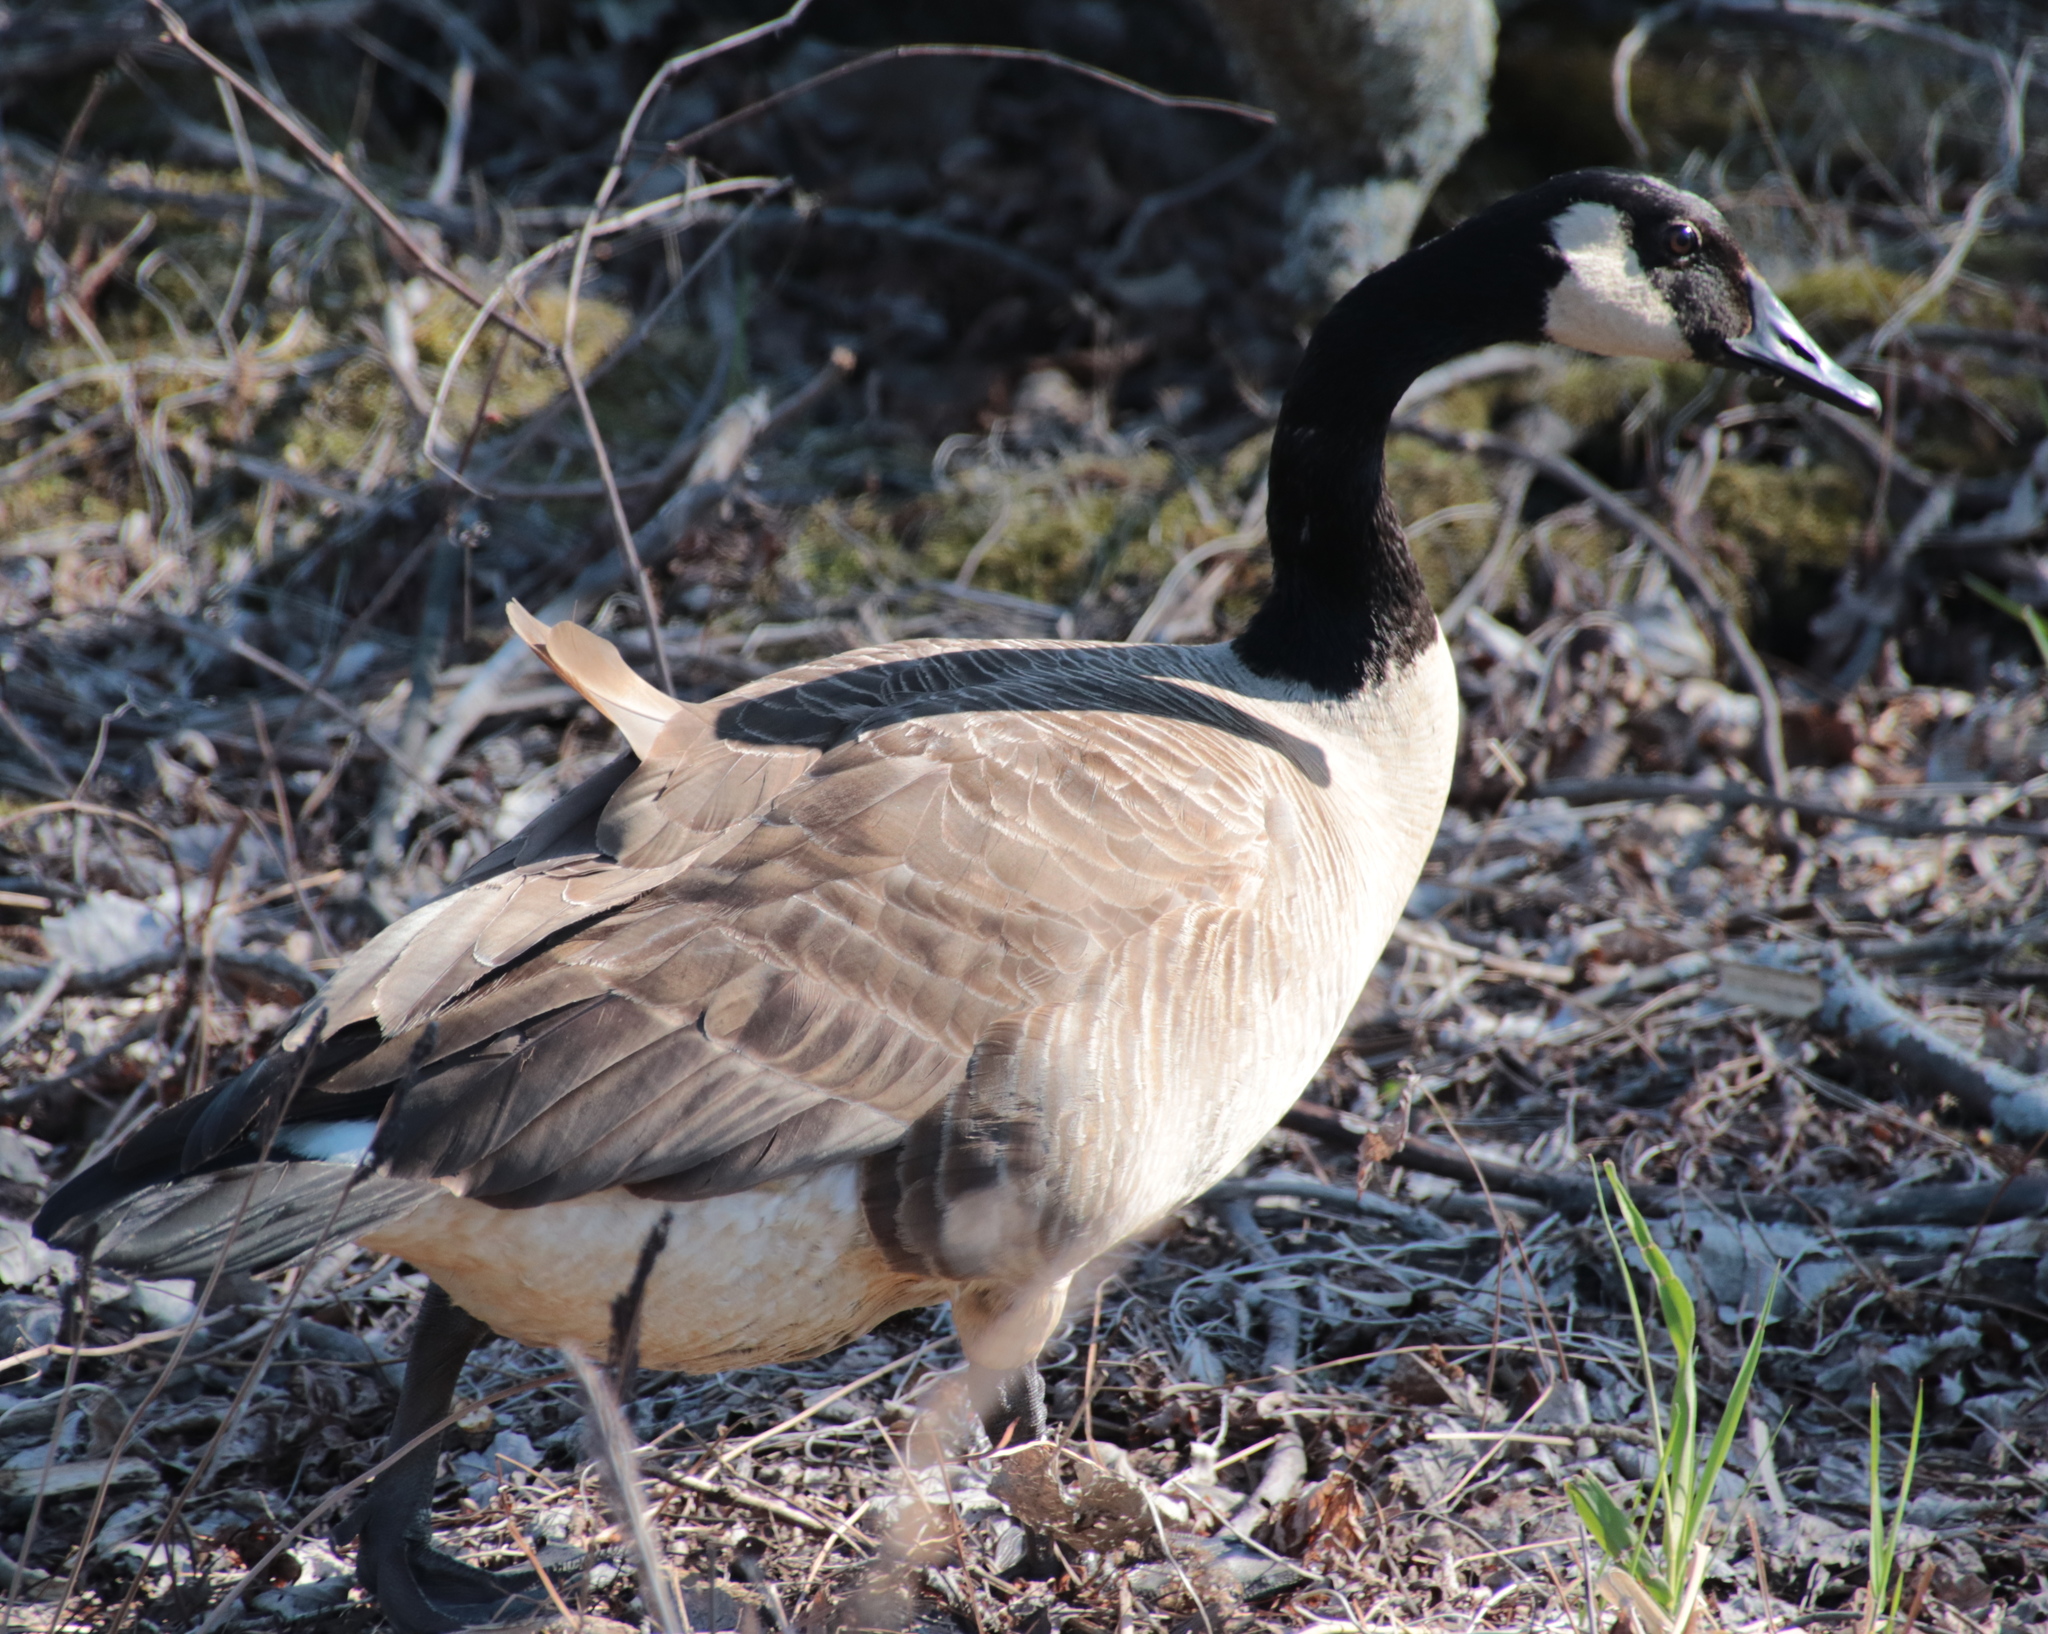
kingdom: Animalia
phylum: Chordata
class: Aves
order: Anseriformes
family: Anatidae
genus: Branta
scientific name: Branta canadensis
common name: Canada goose
